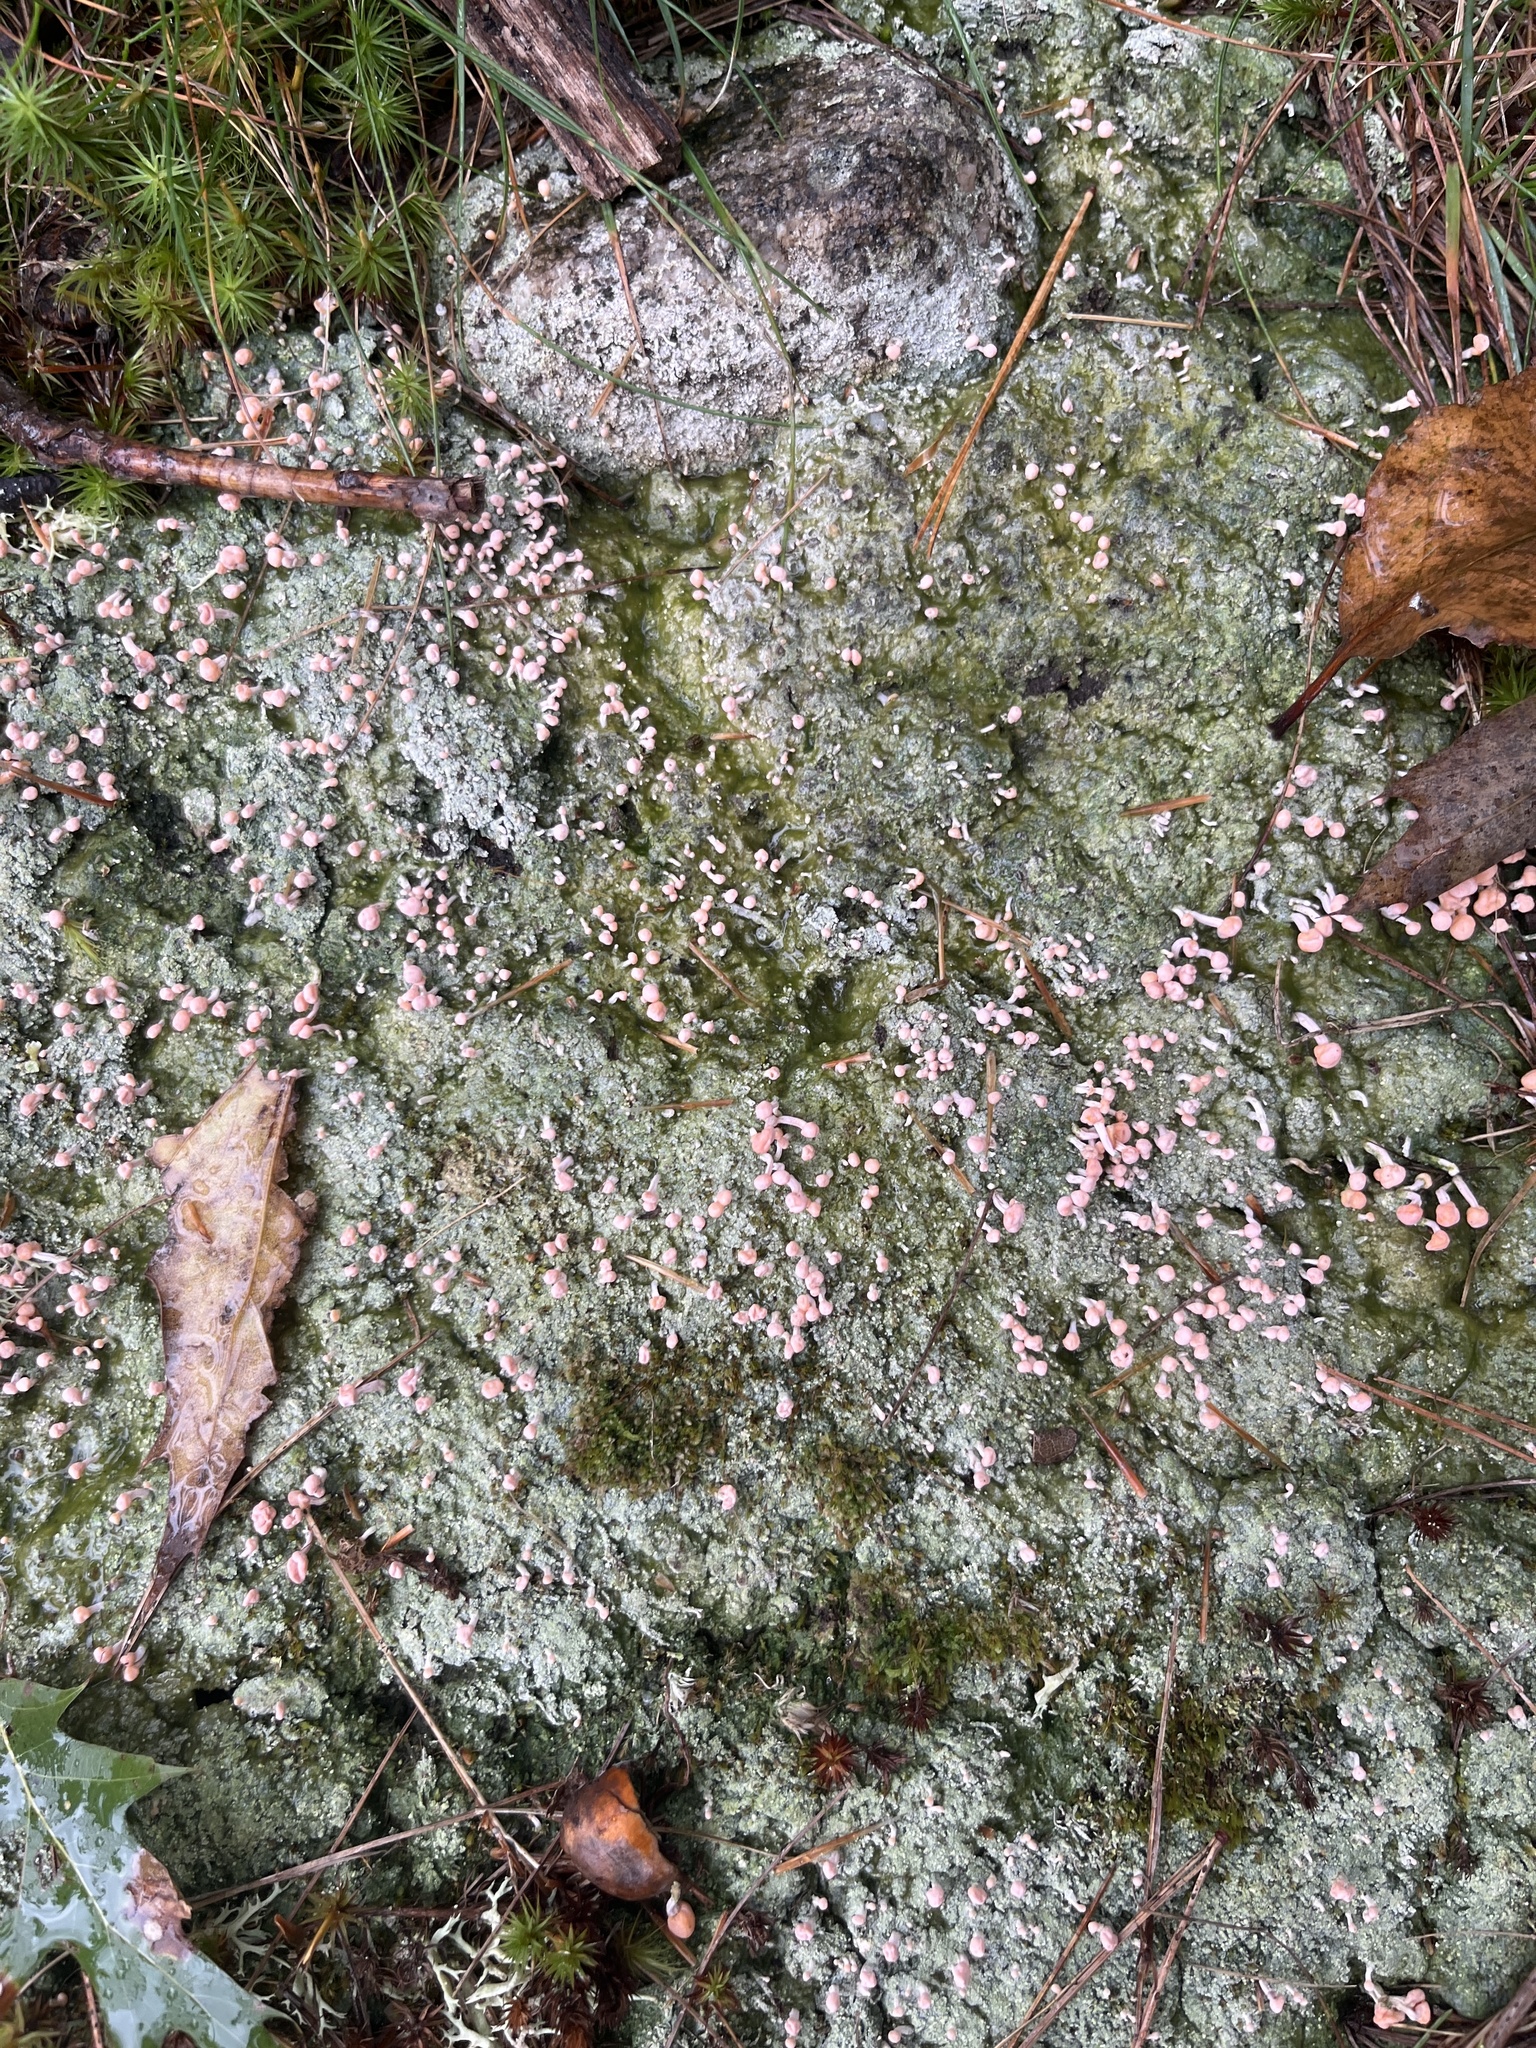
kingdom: Fungi
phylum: Ascomycota
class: Lecanoromycetes
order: Pertusariales
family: Icmadophilaceae
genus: Dibaeis
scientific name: Dibaeis baeomyces
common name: Pink earth lichen
